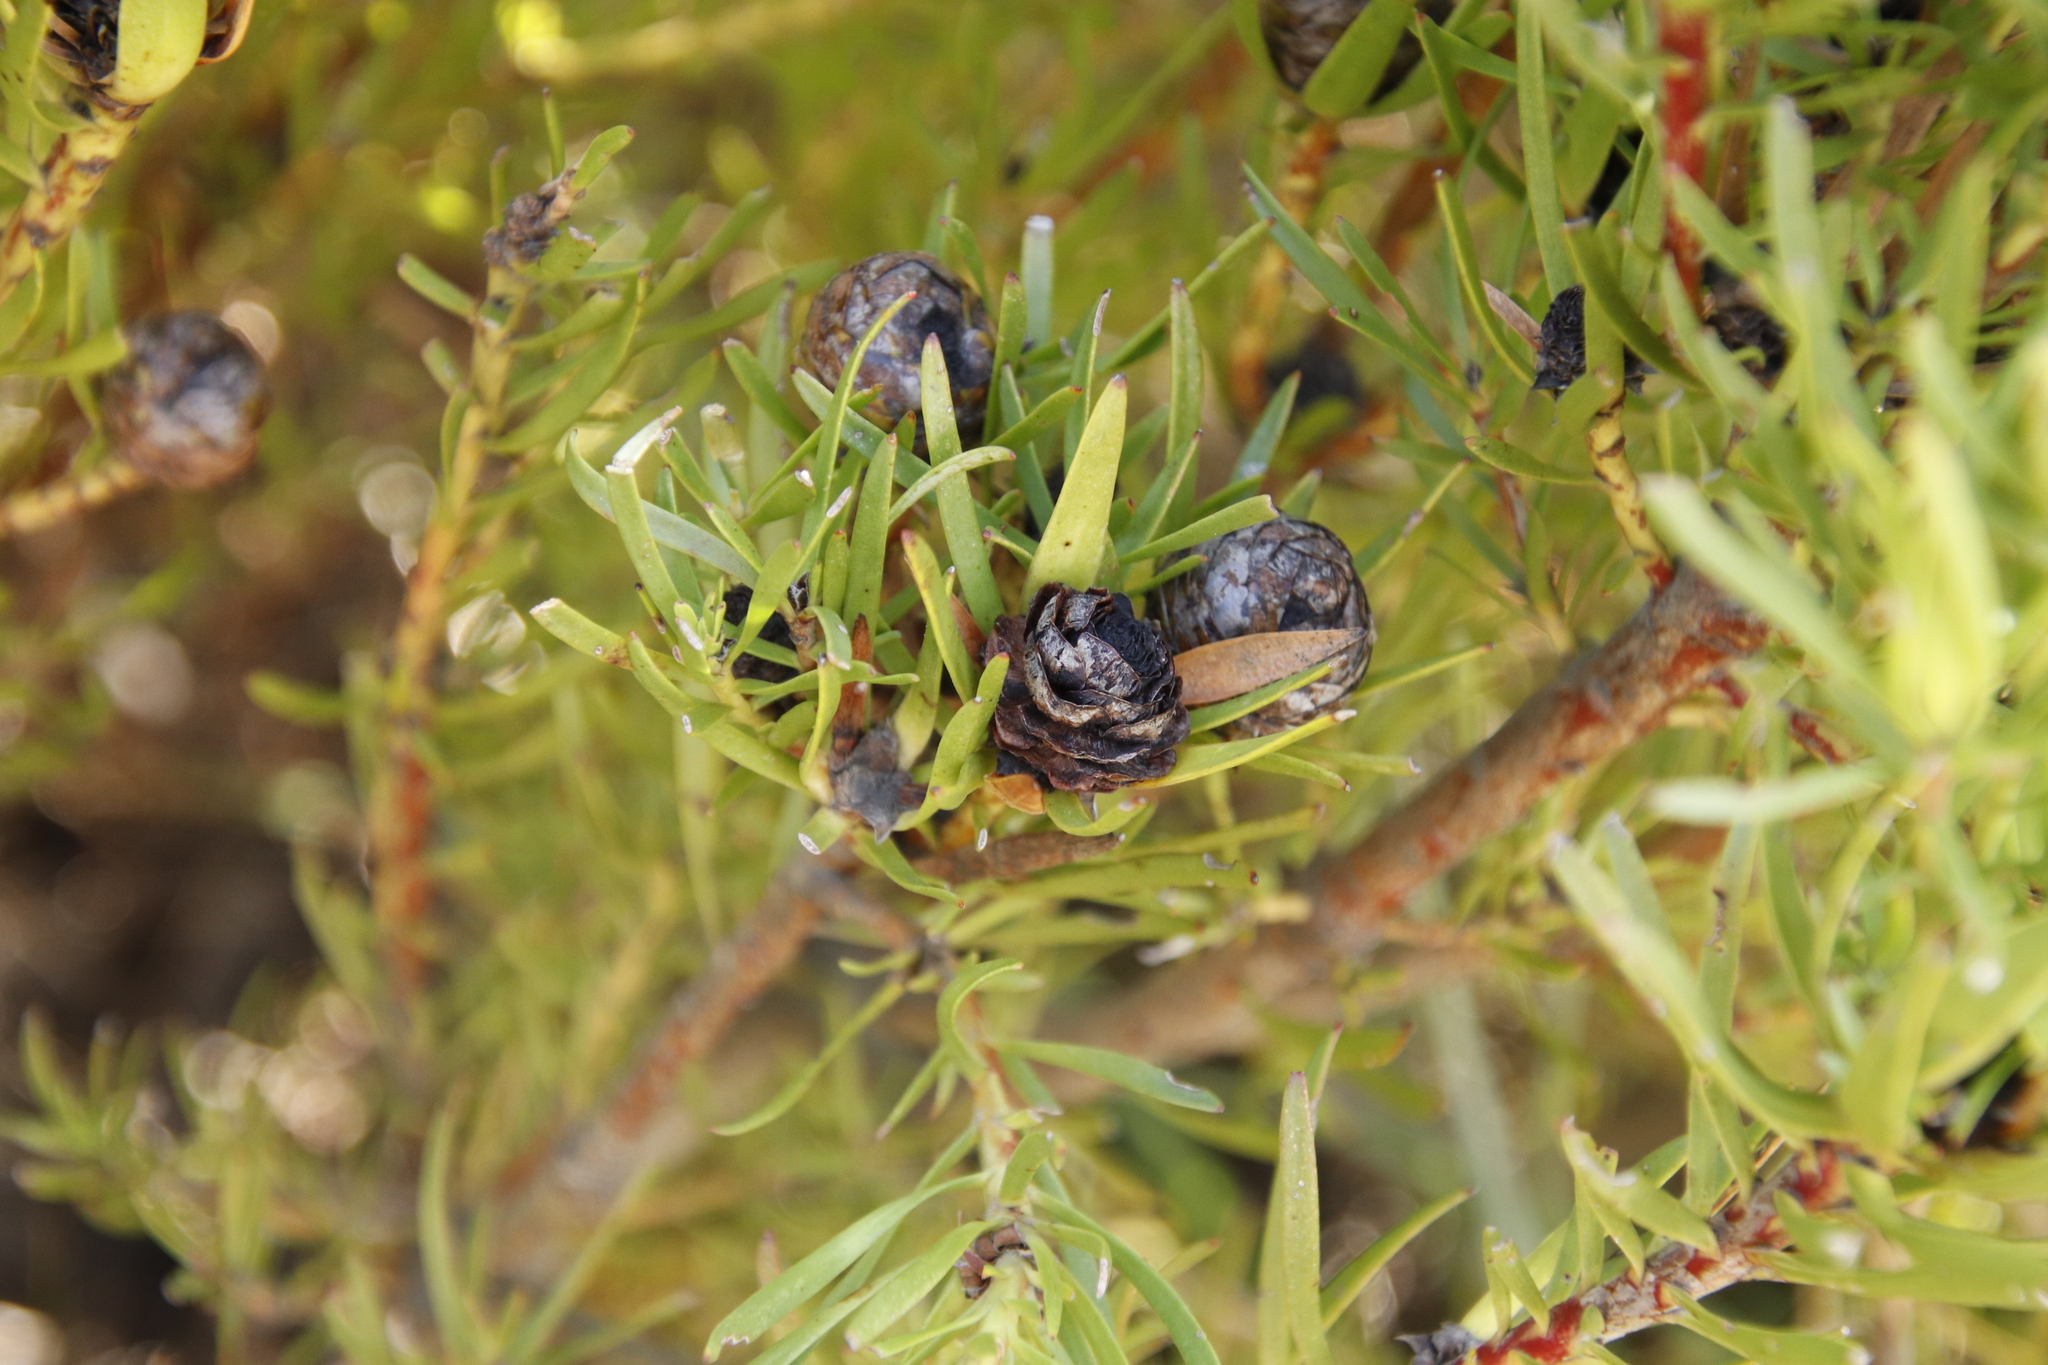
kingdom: Plantae
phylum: Tracheophyta
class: Magnoliopsida
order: Proteales
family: Proteaceae
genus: Leucadendron
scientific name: Leucadendron spissifolium
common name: Spear-leaf conebush
